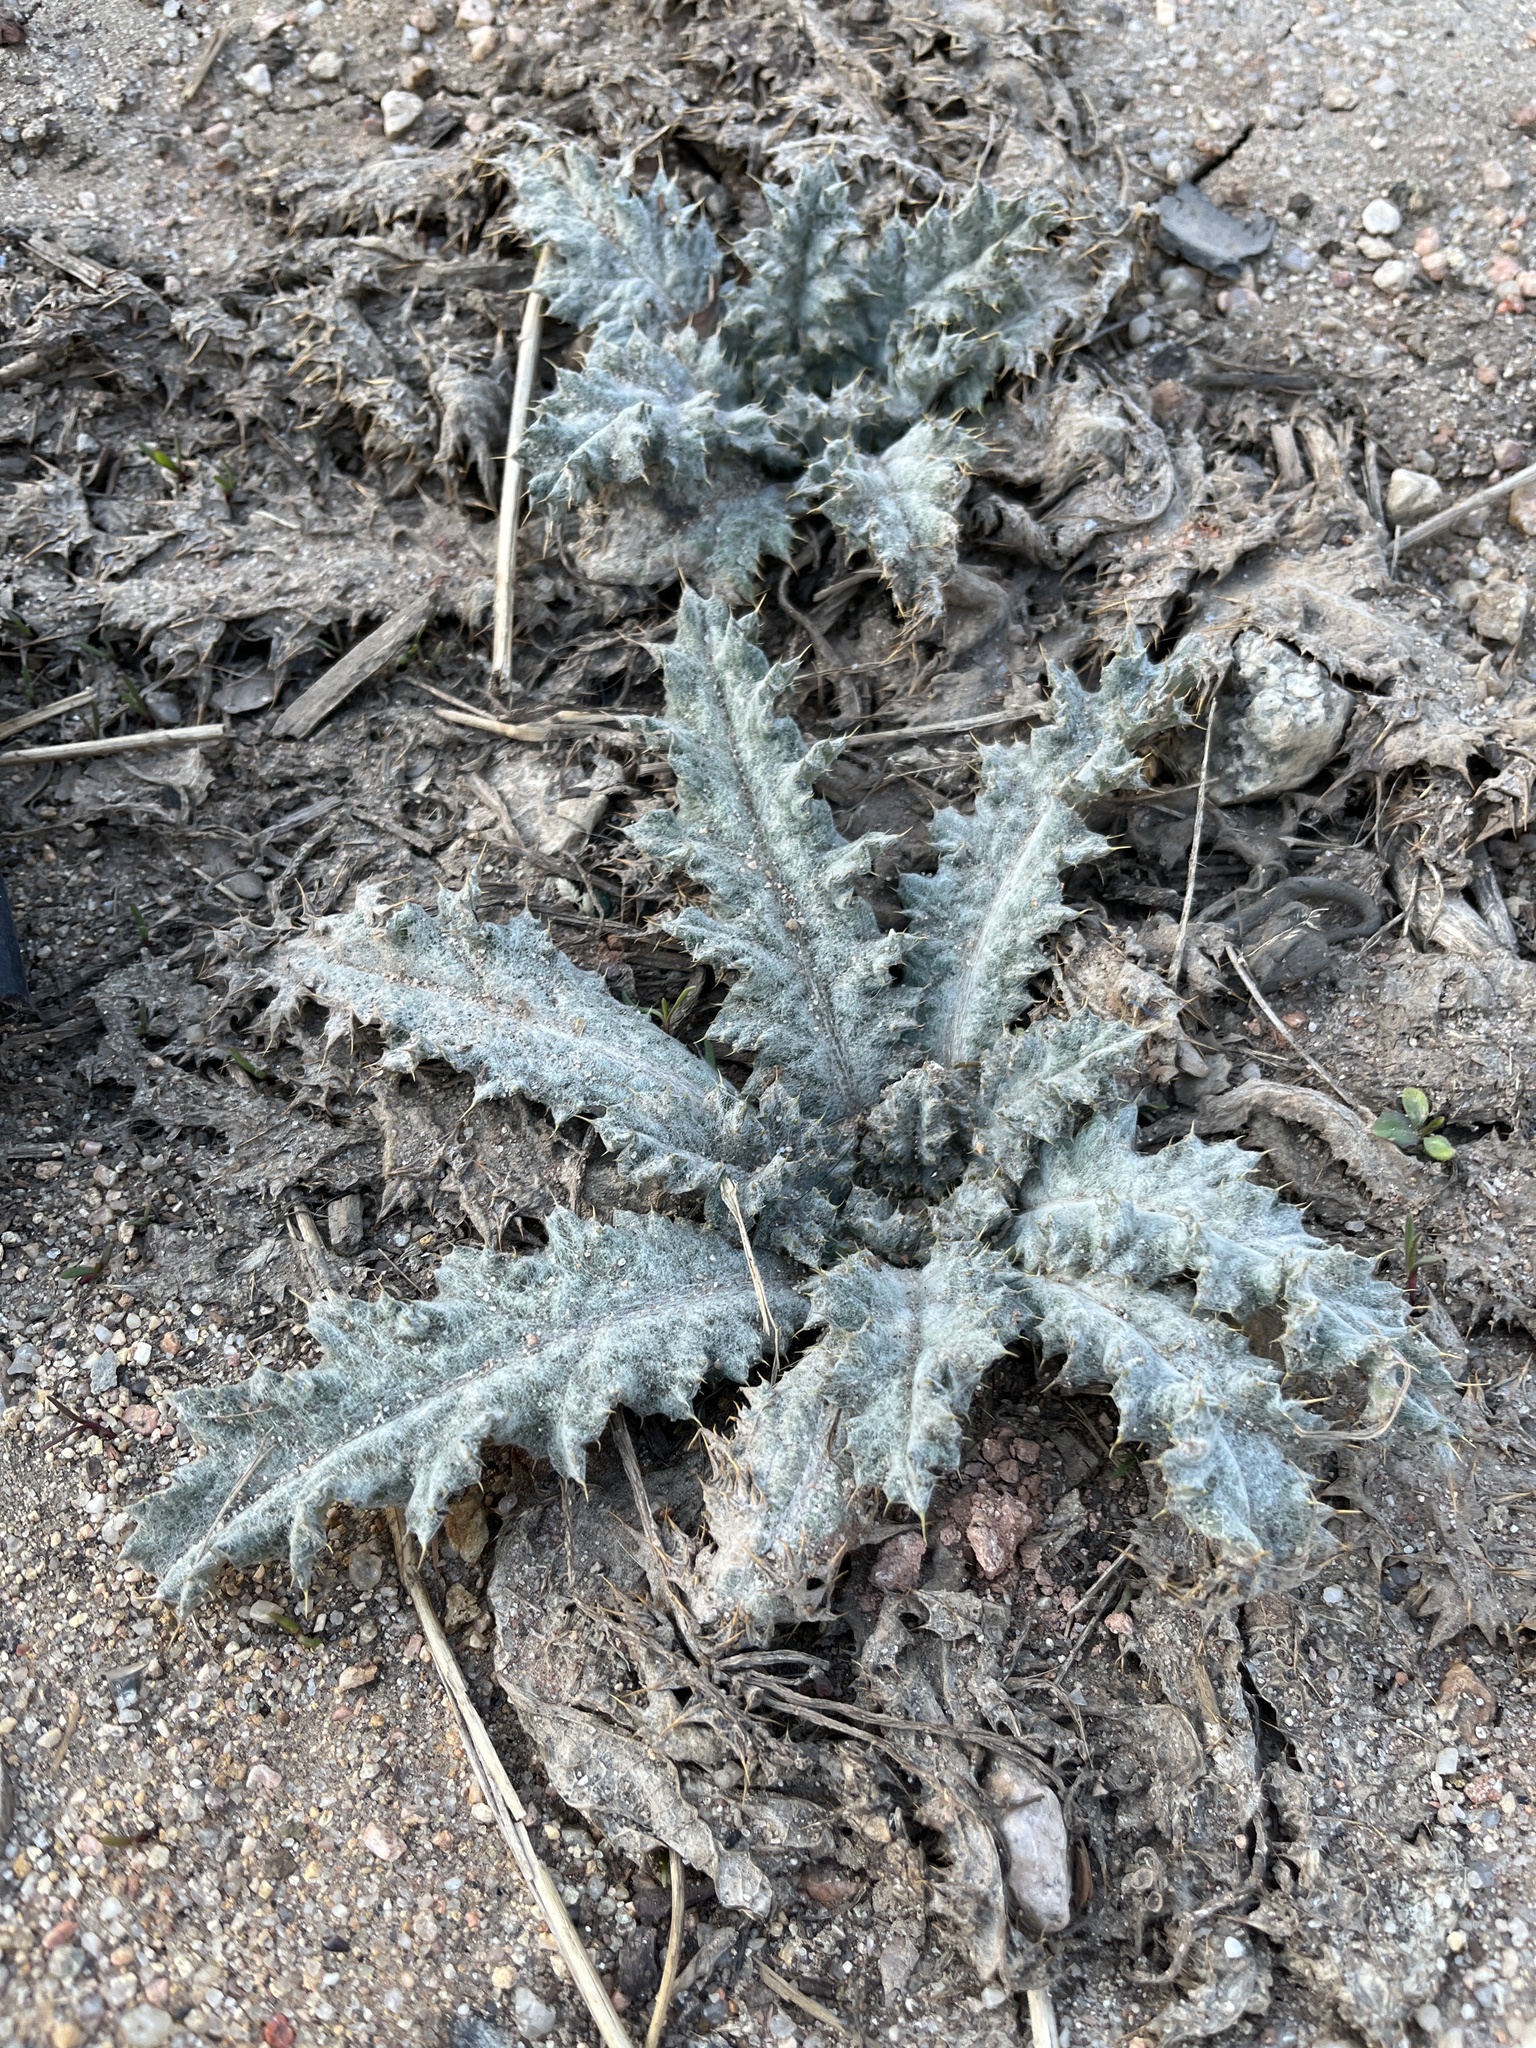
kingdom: Plantae
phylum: Tracheophyta
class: Magnoliopsida
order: Asterales
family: Asteraceae
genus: Onopordum
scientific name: Onopordum acanthium
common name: Scotch thistle
